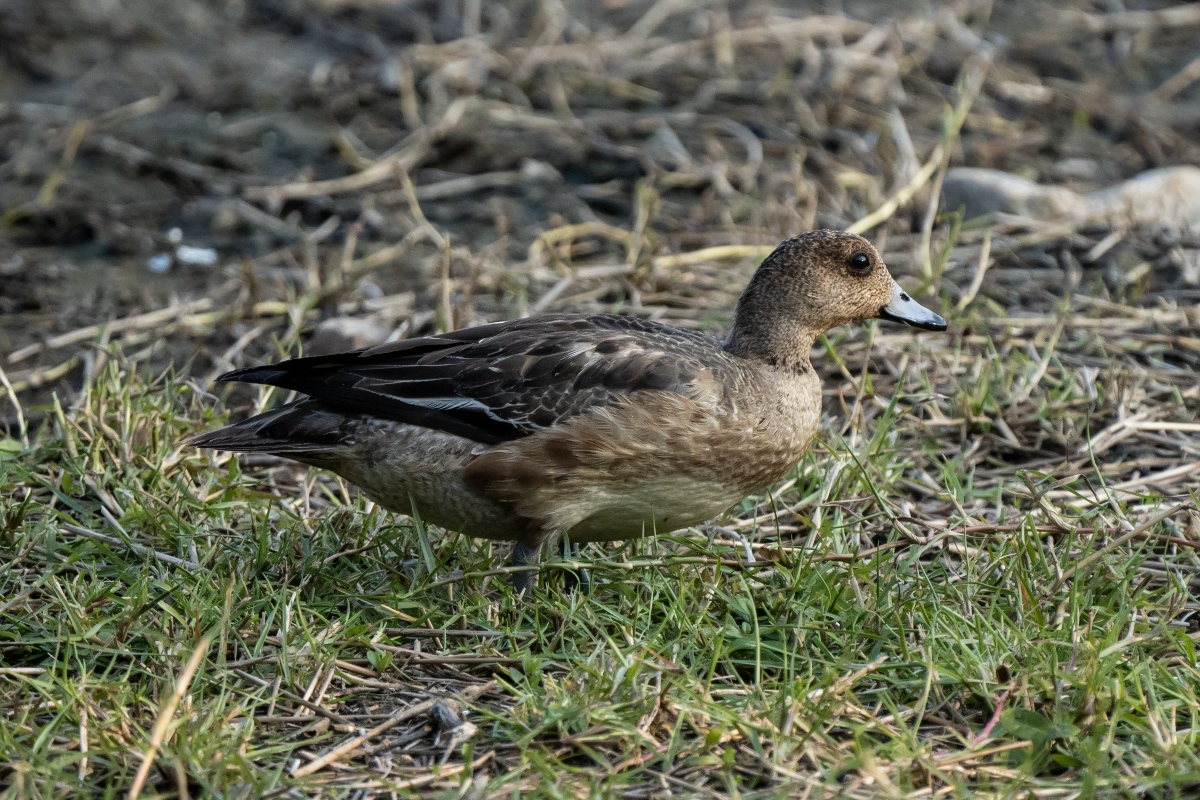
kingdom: Animalia
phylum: Chordata
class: Aves
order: Anseriformes
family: Anatidae
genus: Mareca
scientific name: Mareca penelope
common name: Eurasian wigeon
